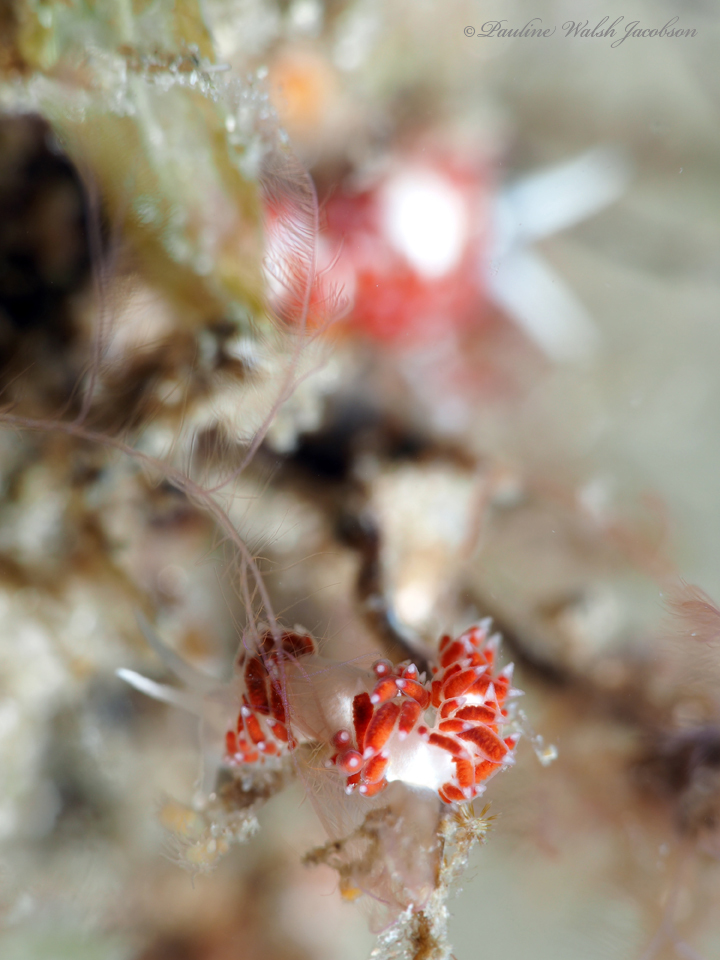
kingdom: Animalia
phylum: Mollusca
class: Gastropoda
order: Nudibranchia
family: Flabellinidae
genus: Flabellina
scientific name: Flabellina dushia
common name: Dushia flabellina
